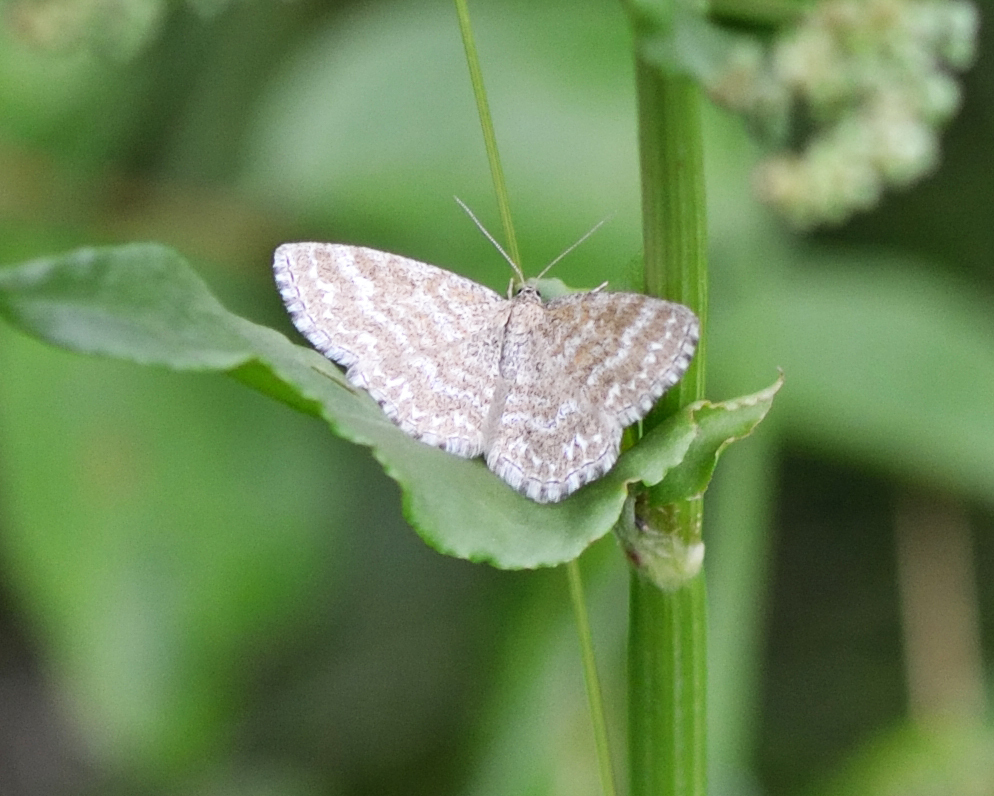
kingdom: Animalia
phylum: Arthropoda
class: Insecta
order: Lepidoptera
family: Geometridae
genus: Scopula
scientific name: Scopula immorata
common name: Lewes wave
